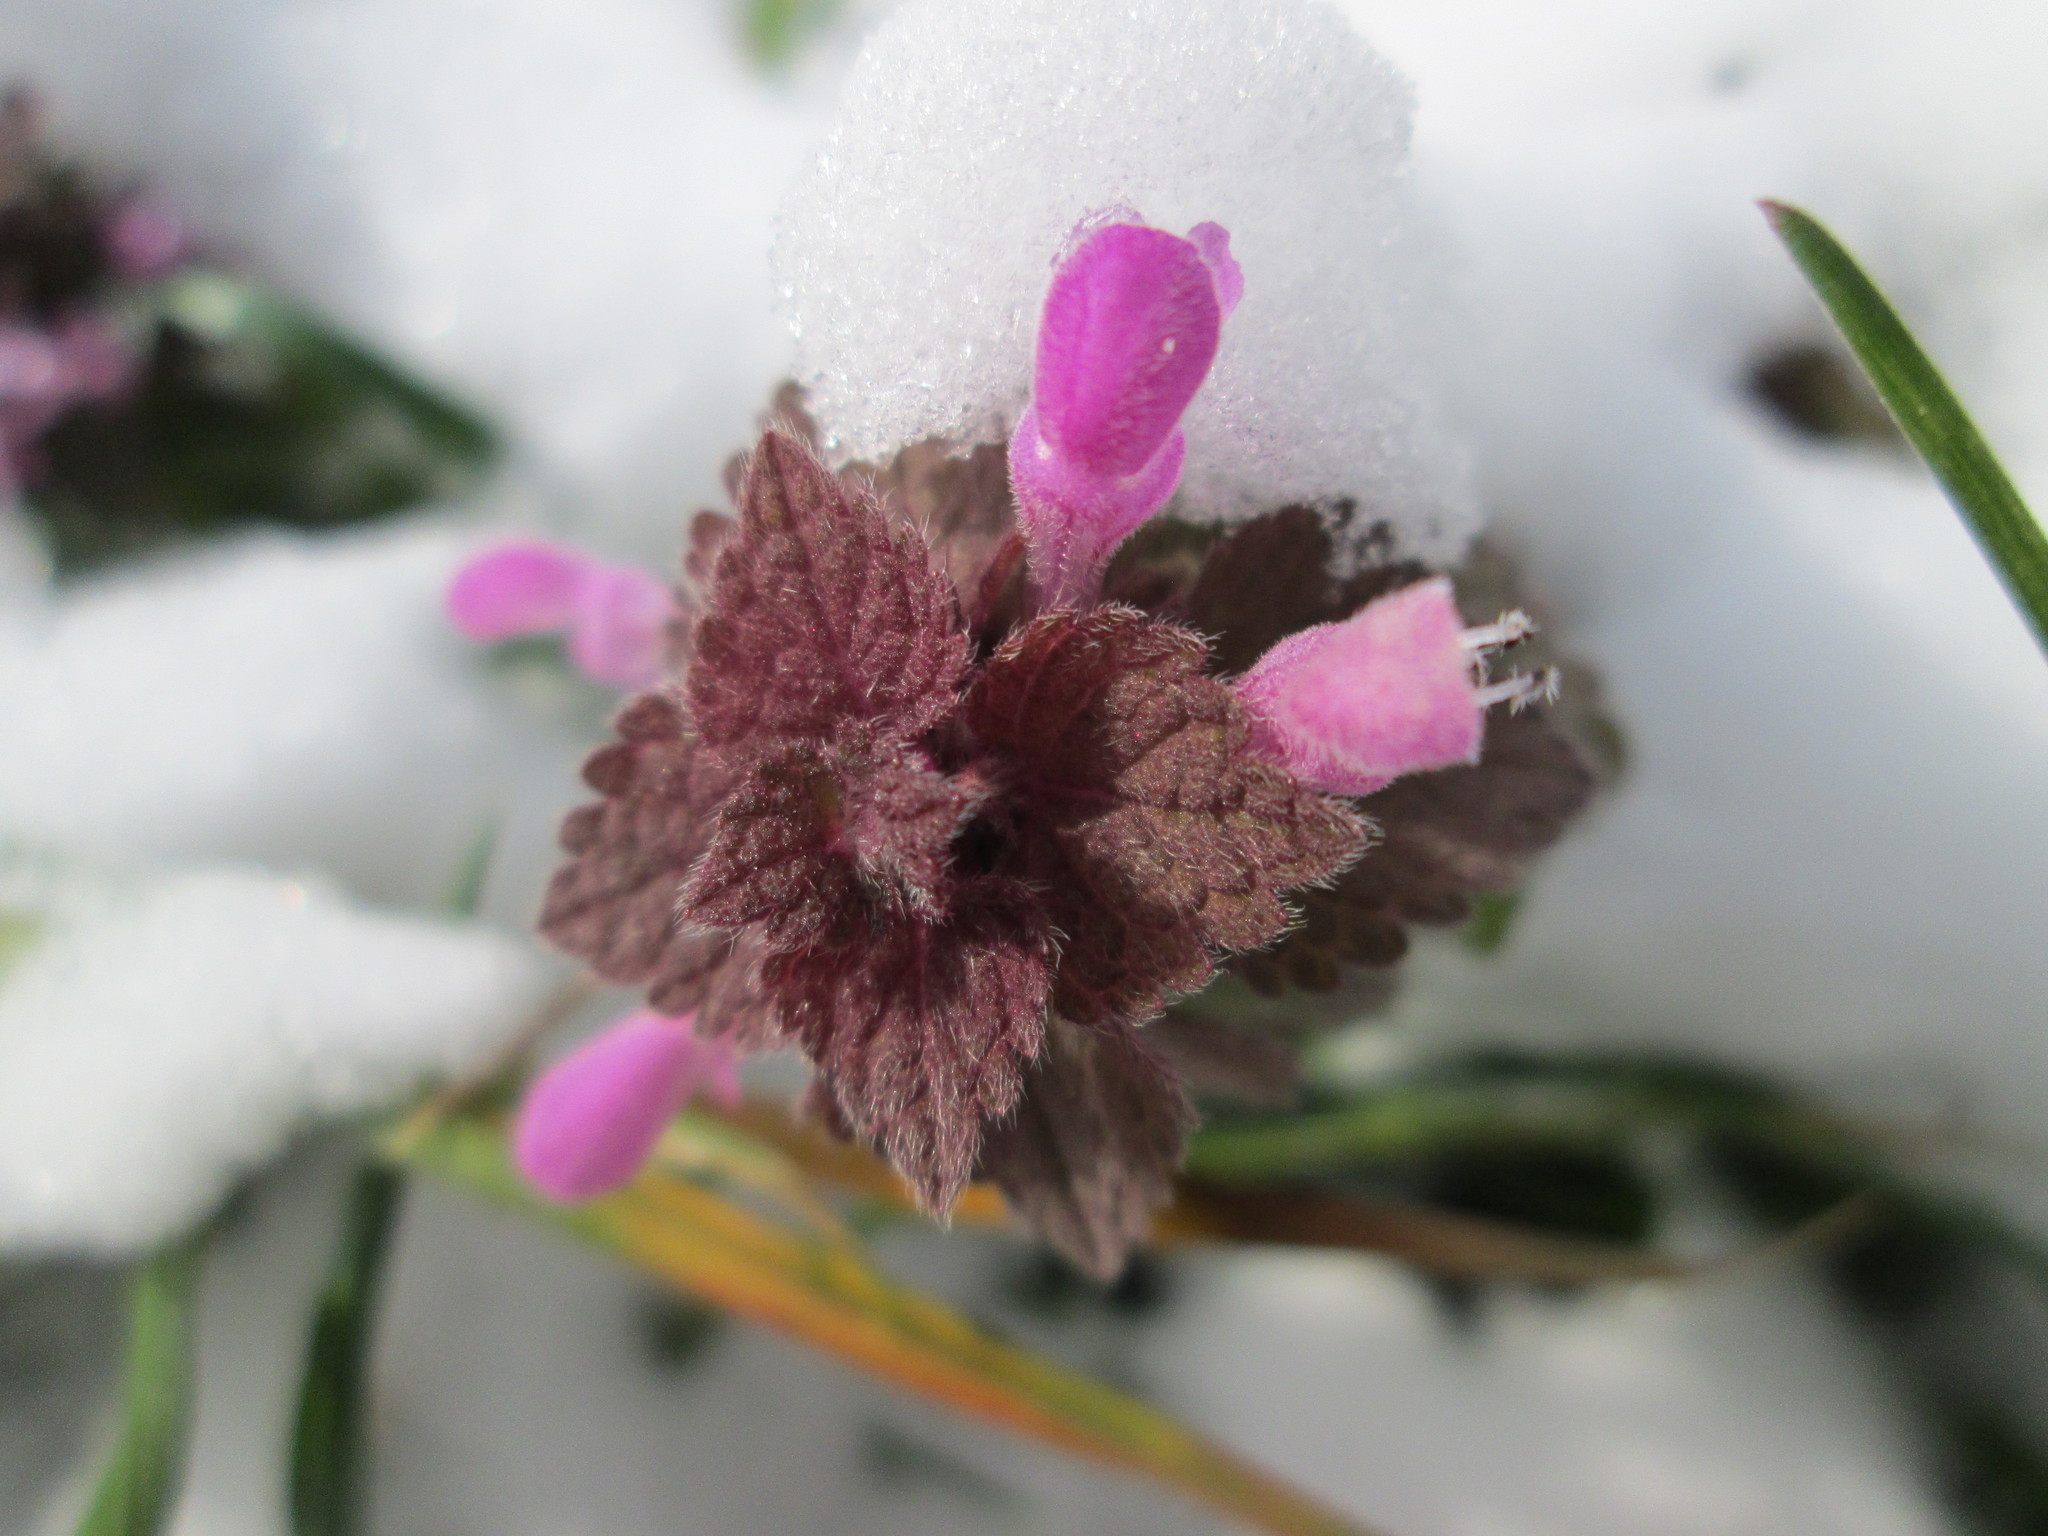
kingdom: Plantae
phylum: Tracheophyta
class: Magnoliopsida
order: Lamiales
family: Lamiaceae
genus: Lamium
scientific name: Lamium purpureum
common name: Red dead-nettle
